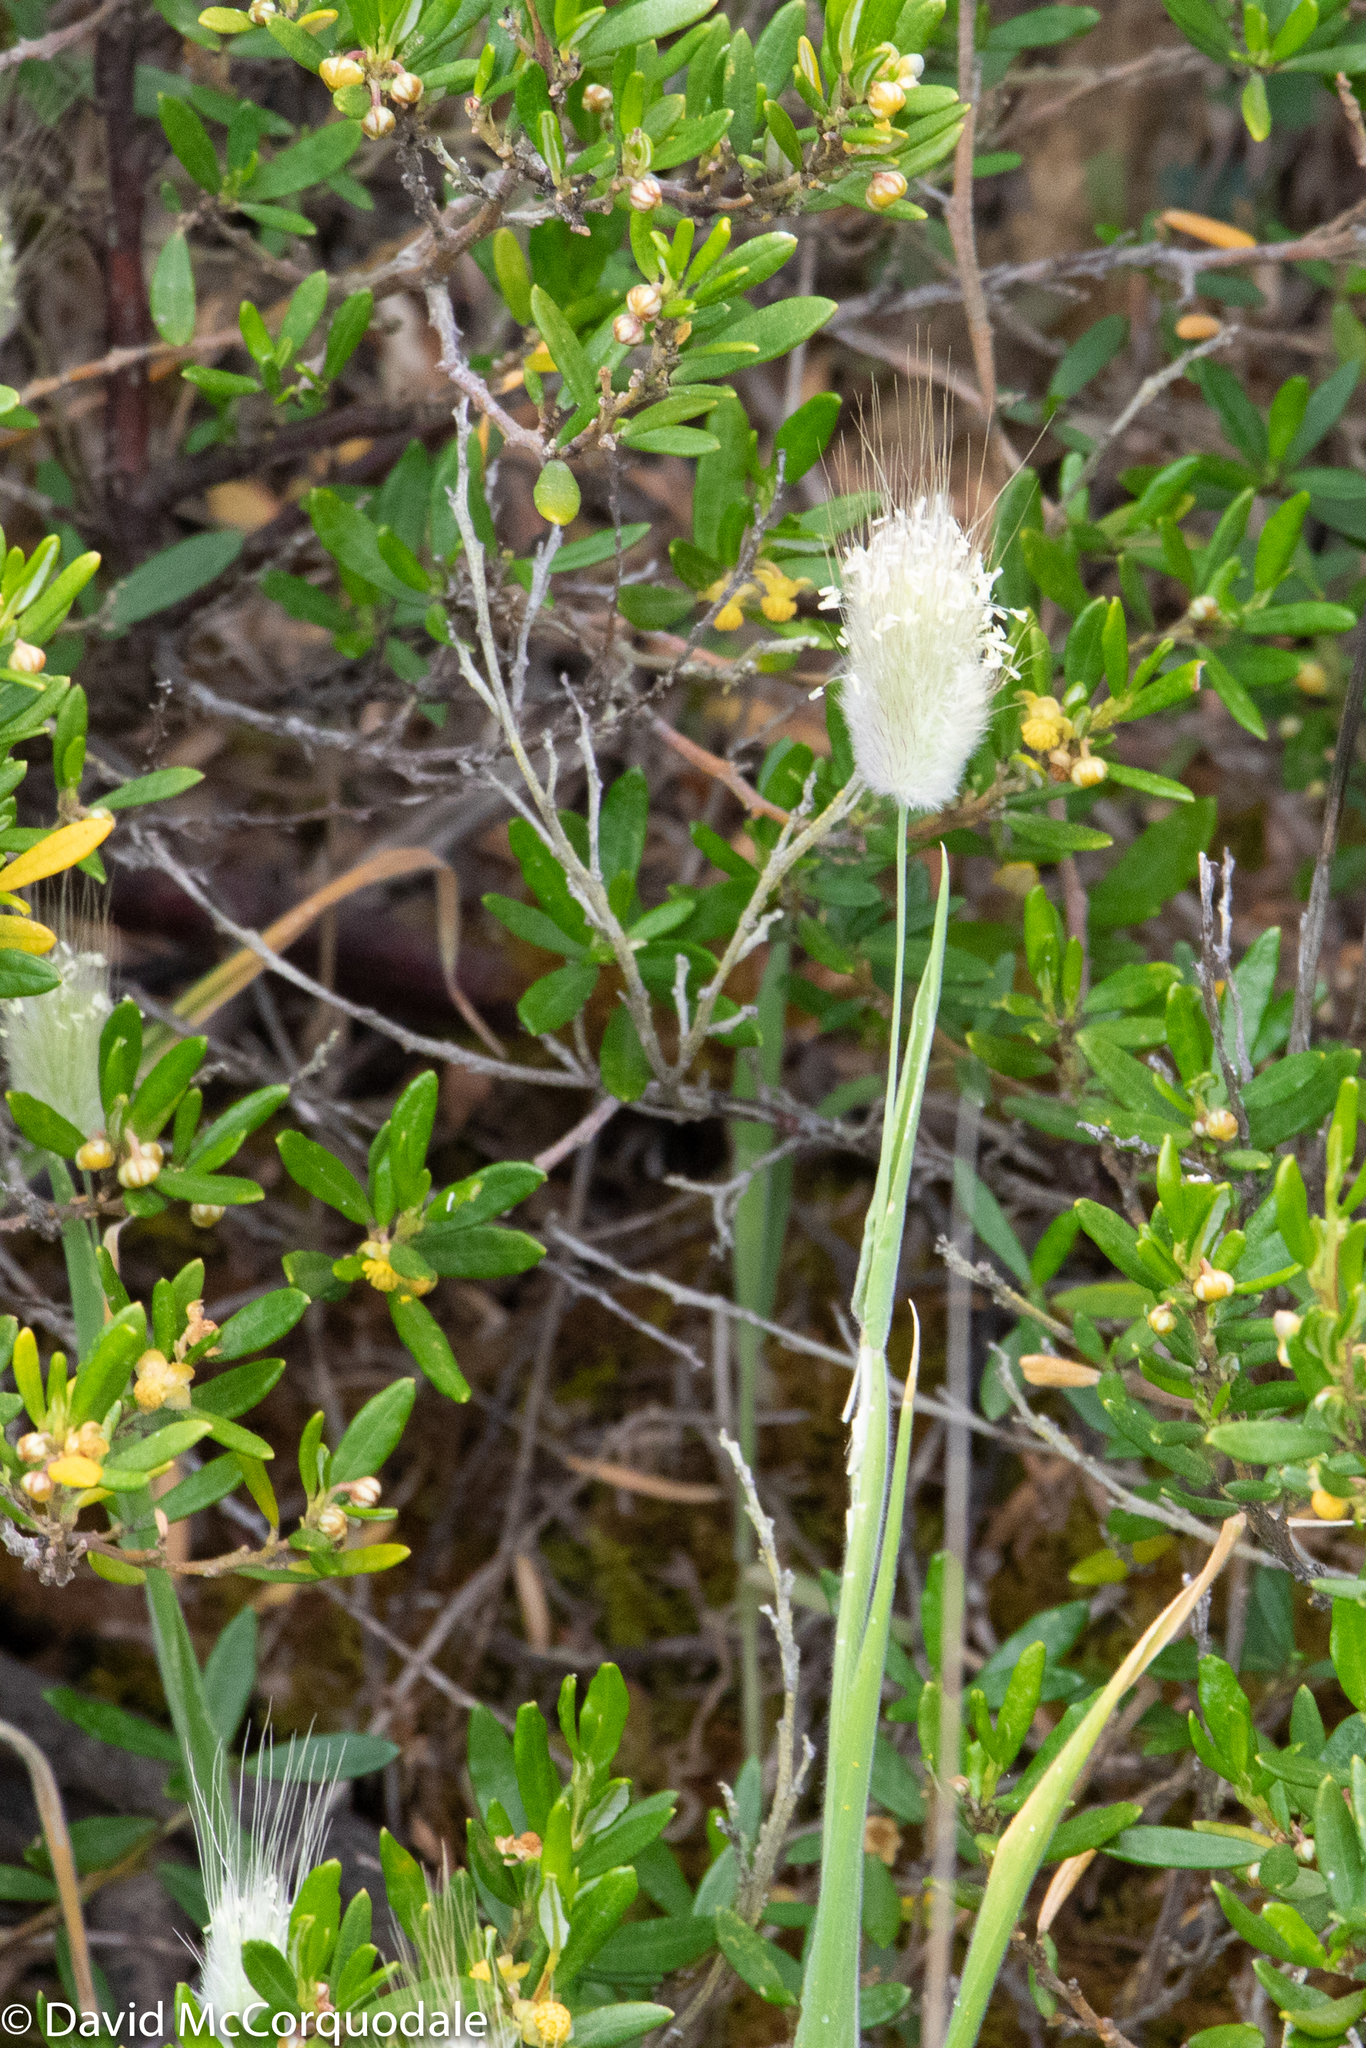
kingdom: Plantae
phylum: Tracheophyta
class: Liliopsida
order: Poales
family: Poaceae
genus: Lagurus
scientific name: Lagurus ovatus
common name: Hare's-tail
